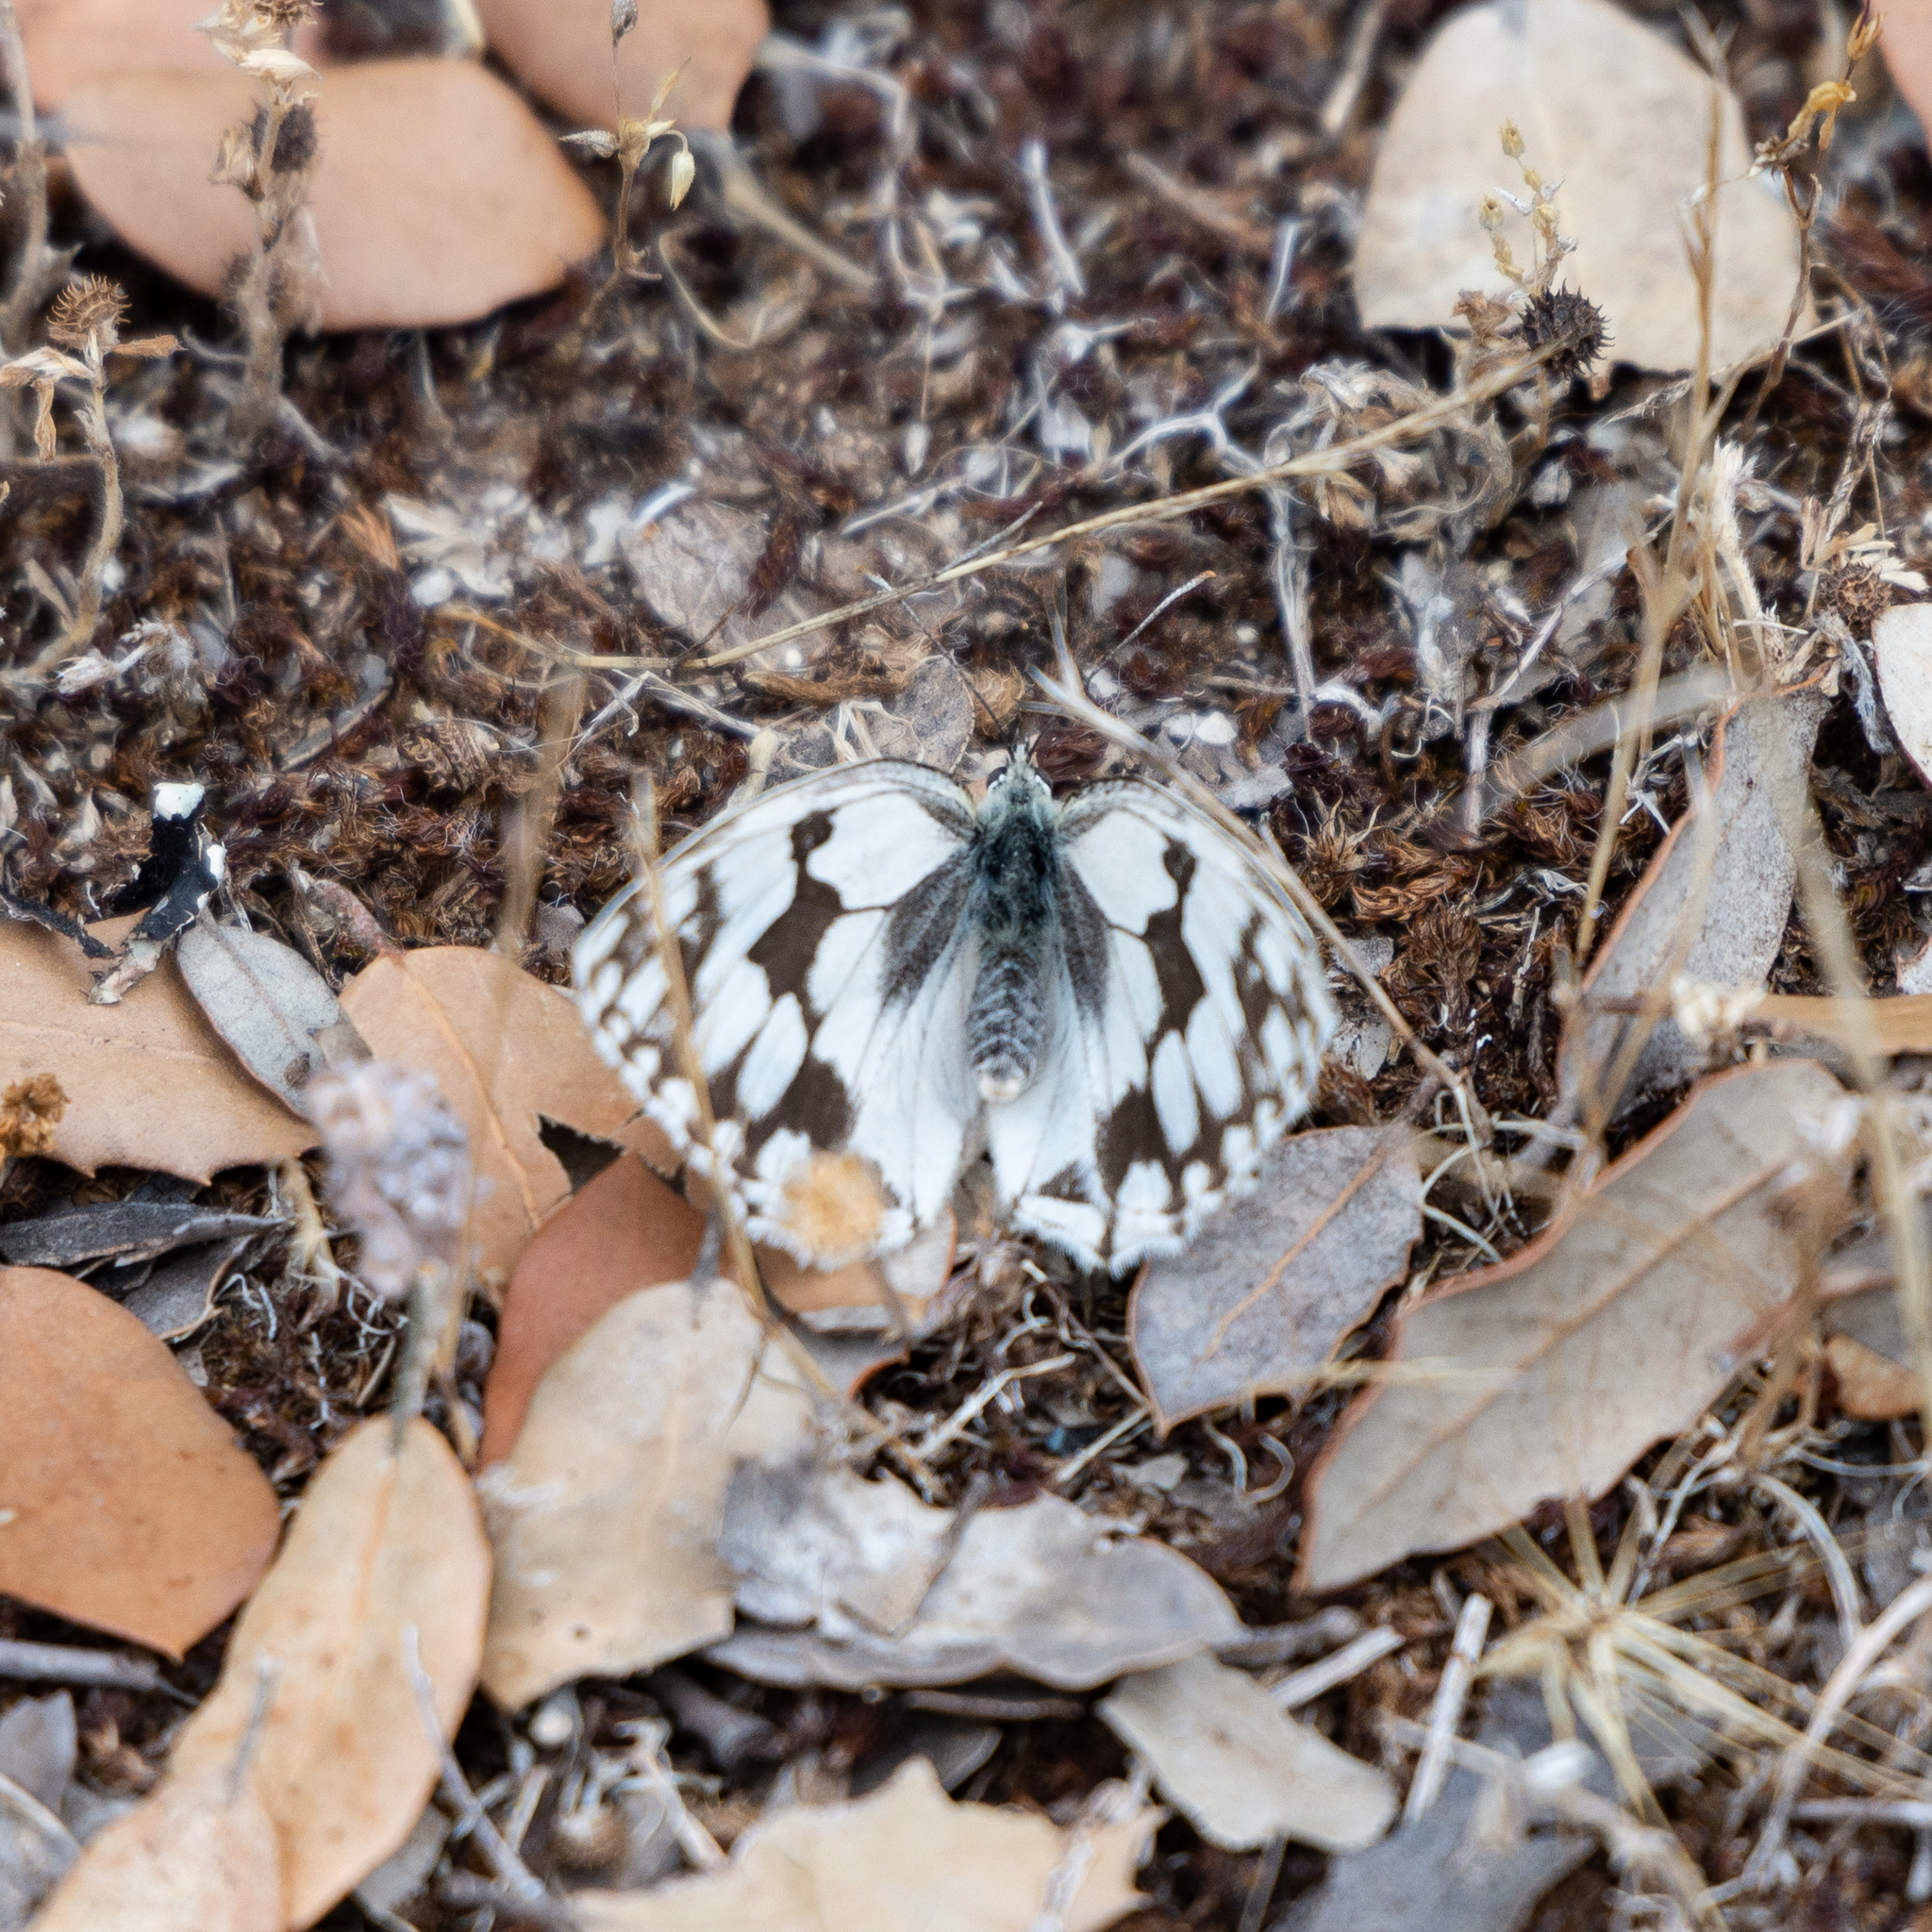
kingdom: Animalia
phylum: Arthropoda
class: Insecta
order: Lepidoptera
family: Nymphalidae
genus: Melanargia
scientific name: Melanargia lachesis
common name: Iberian marbled white
